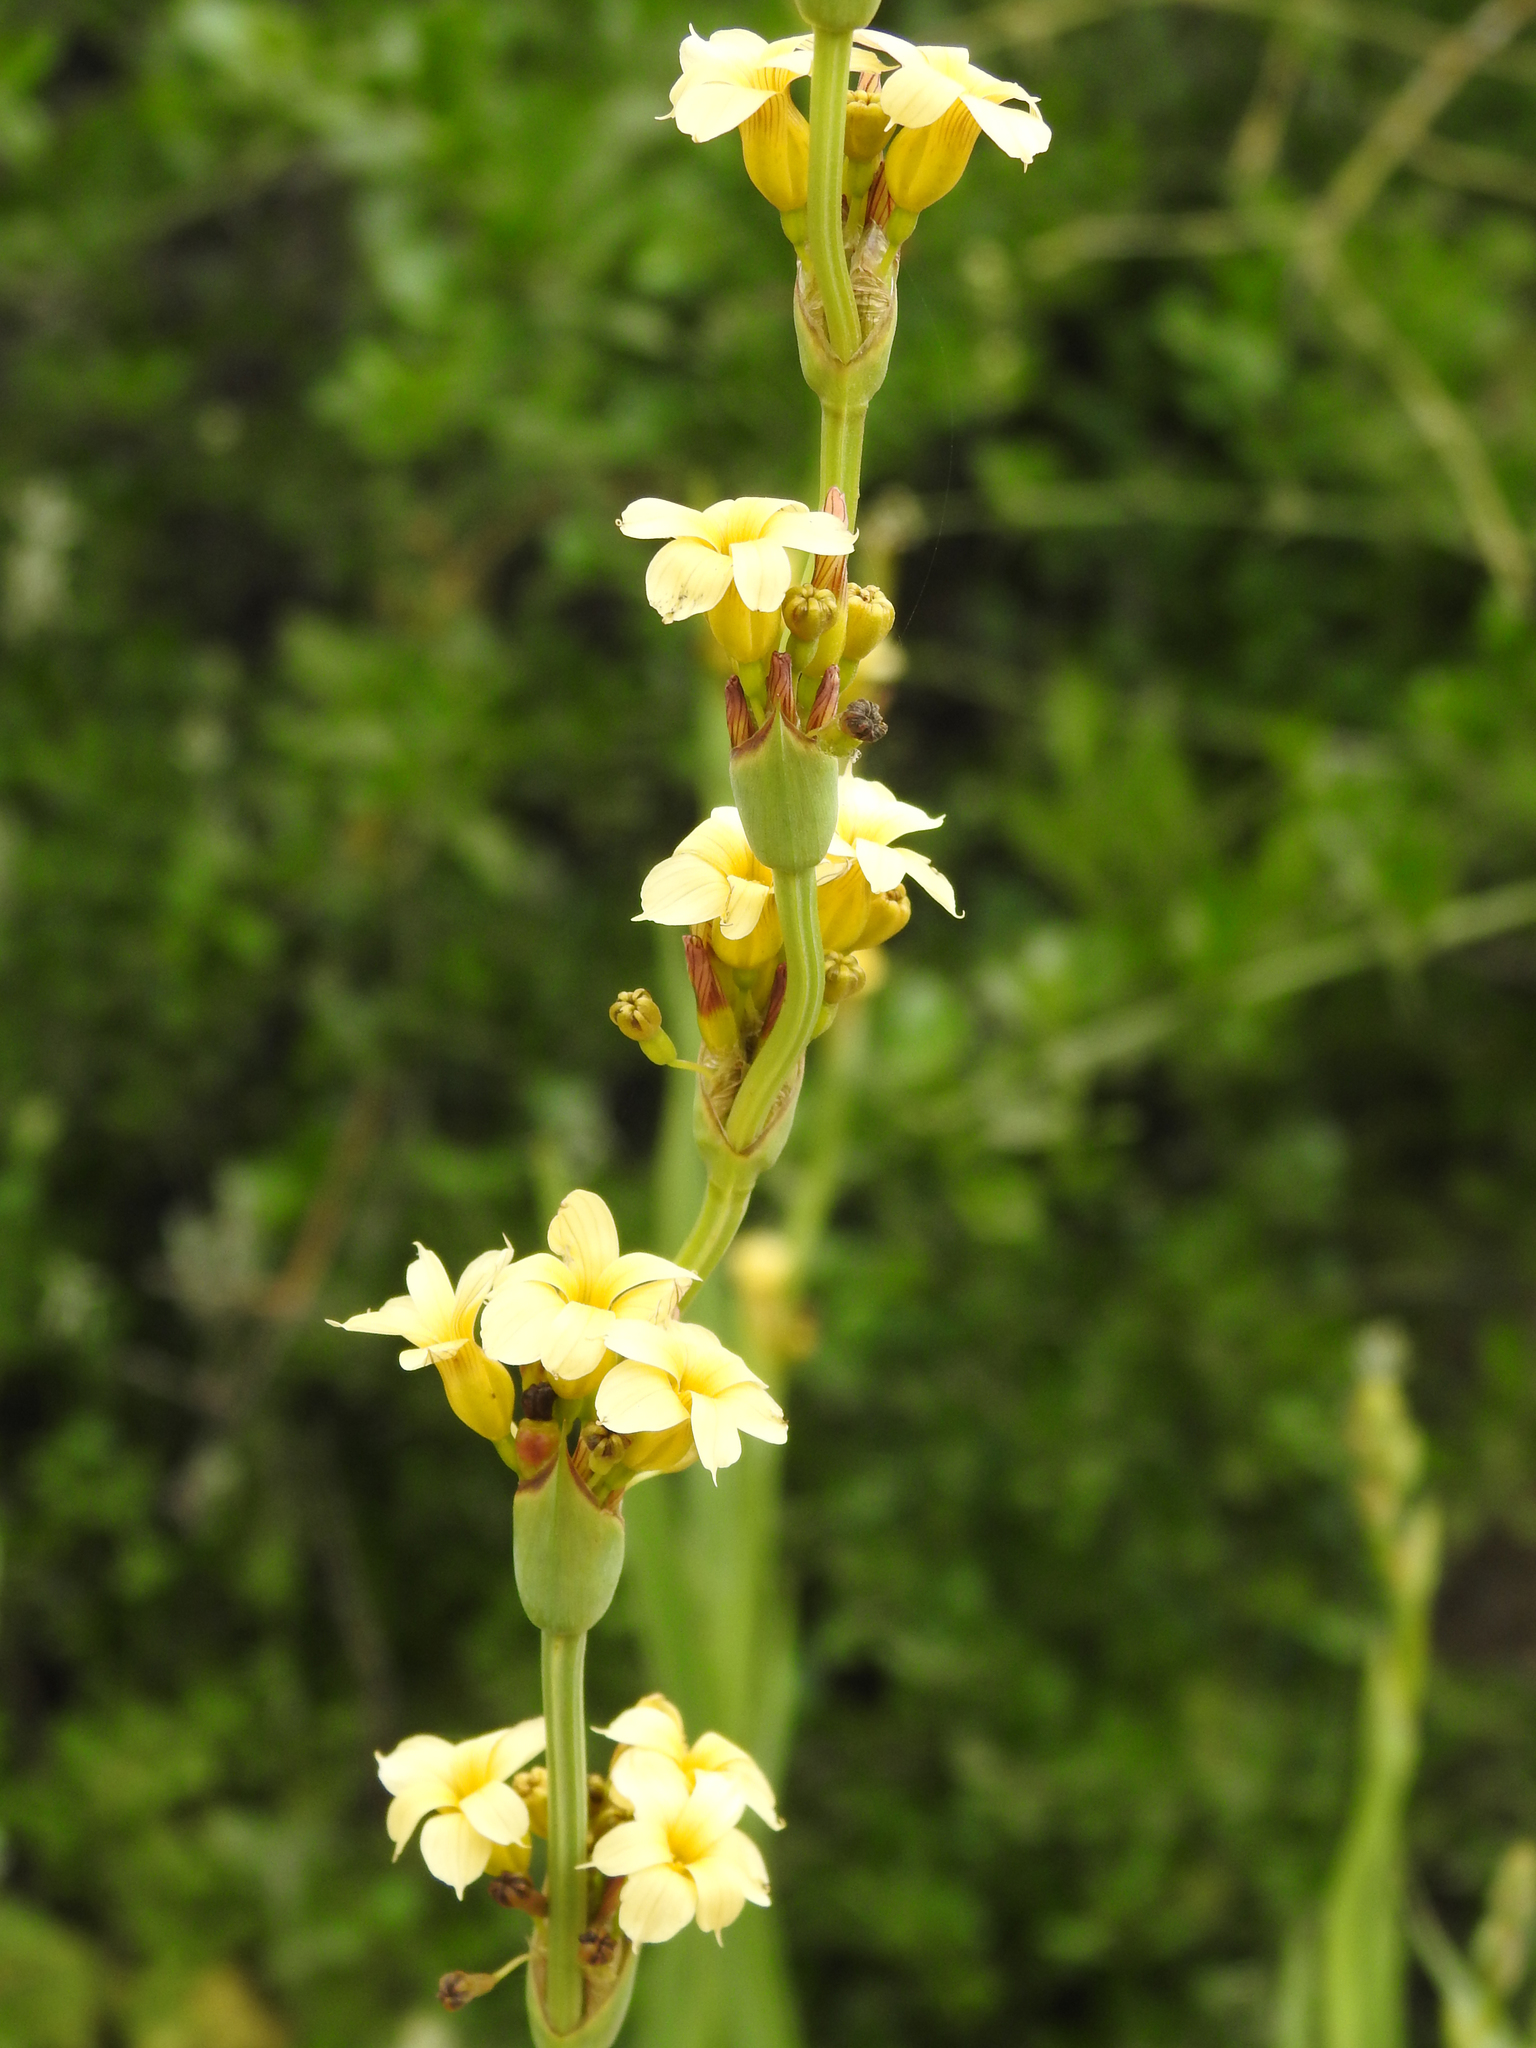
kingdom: Plantae
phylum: Tracheophyta
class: Liliopsida
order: Asparagales
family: Iridaceae
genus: Sisyrinchium
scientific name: Sisyrinchium striatum
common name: Pale yellow-eyed-grass
